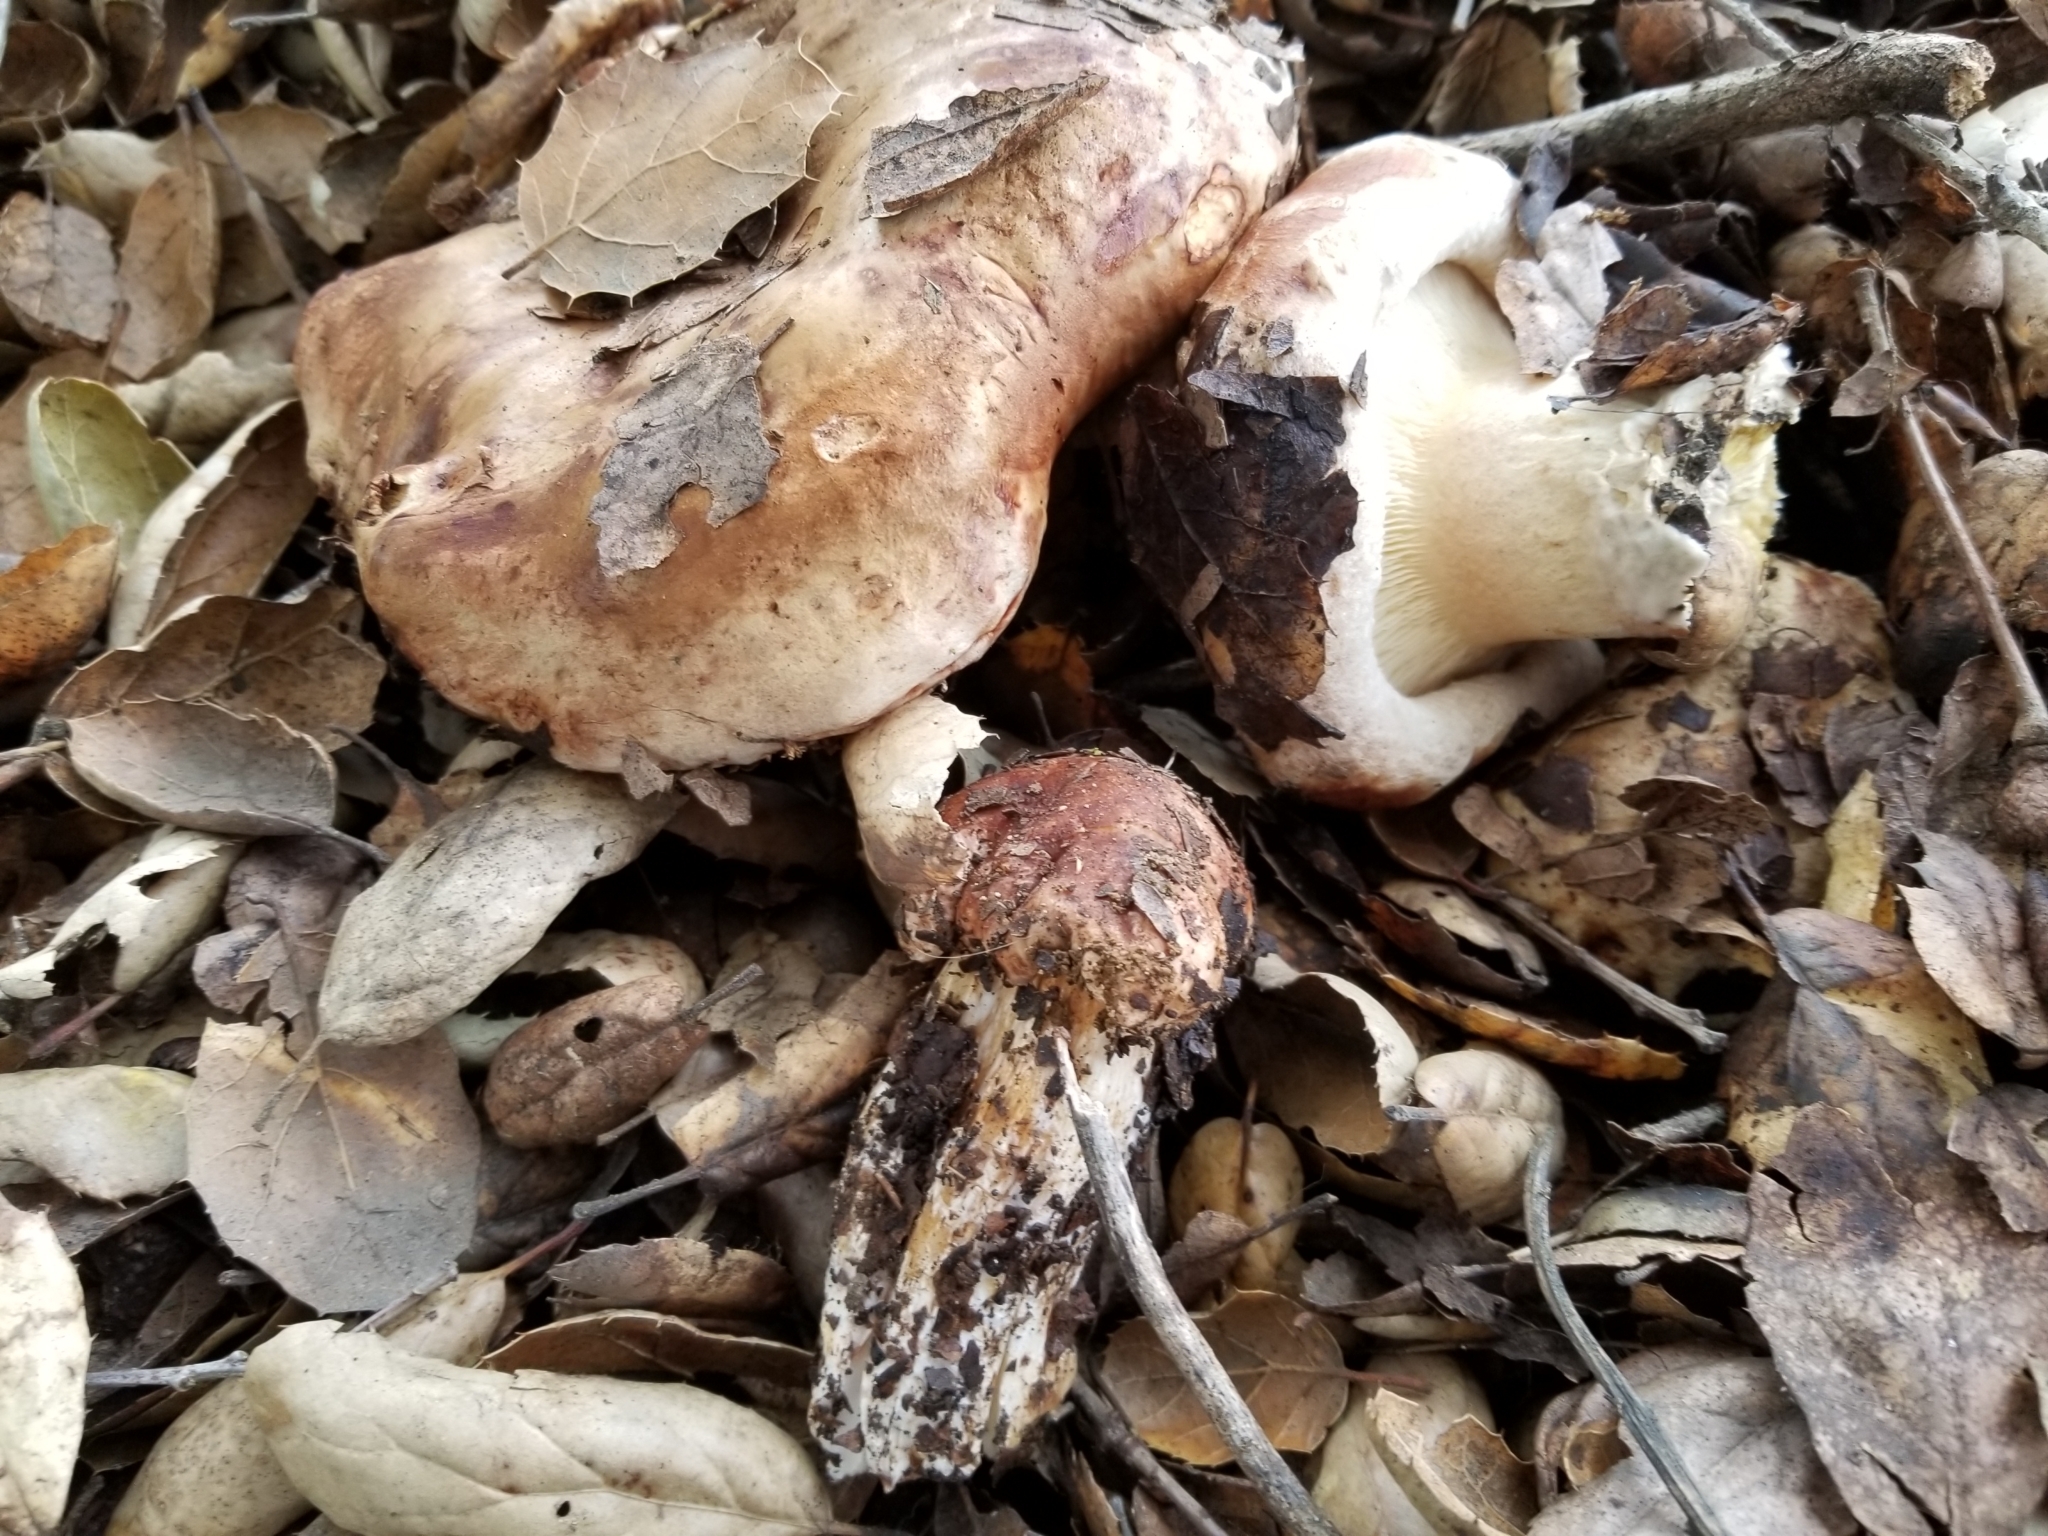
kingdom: Fungi
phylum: Basidiomycota
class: Agaricomycetes
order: Agaricales
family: Tricholomataceae
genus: Melanoleuca
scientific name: Melanoleuca dryophila
